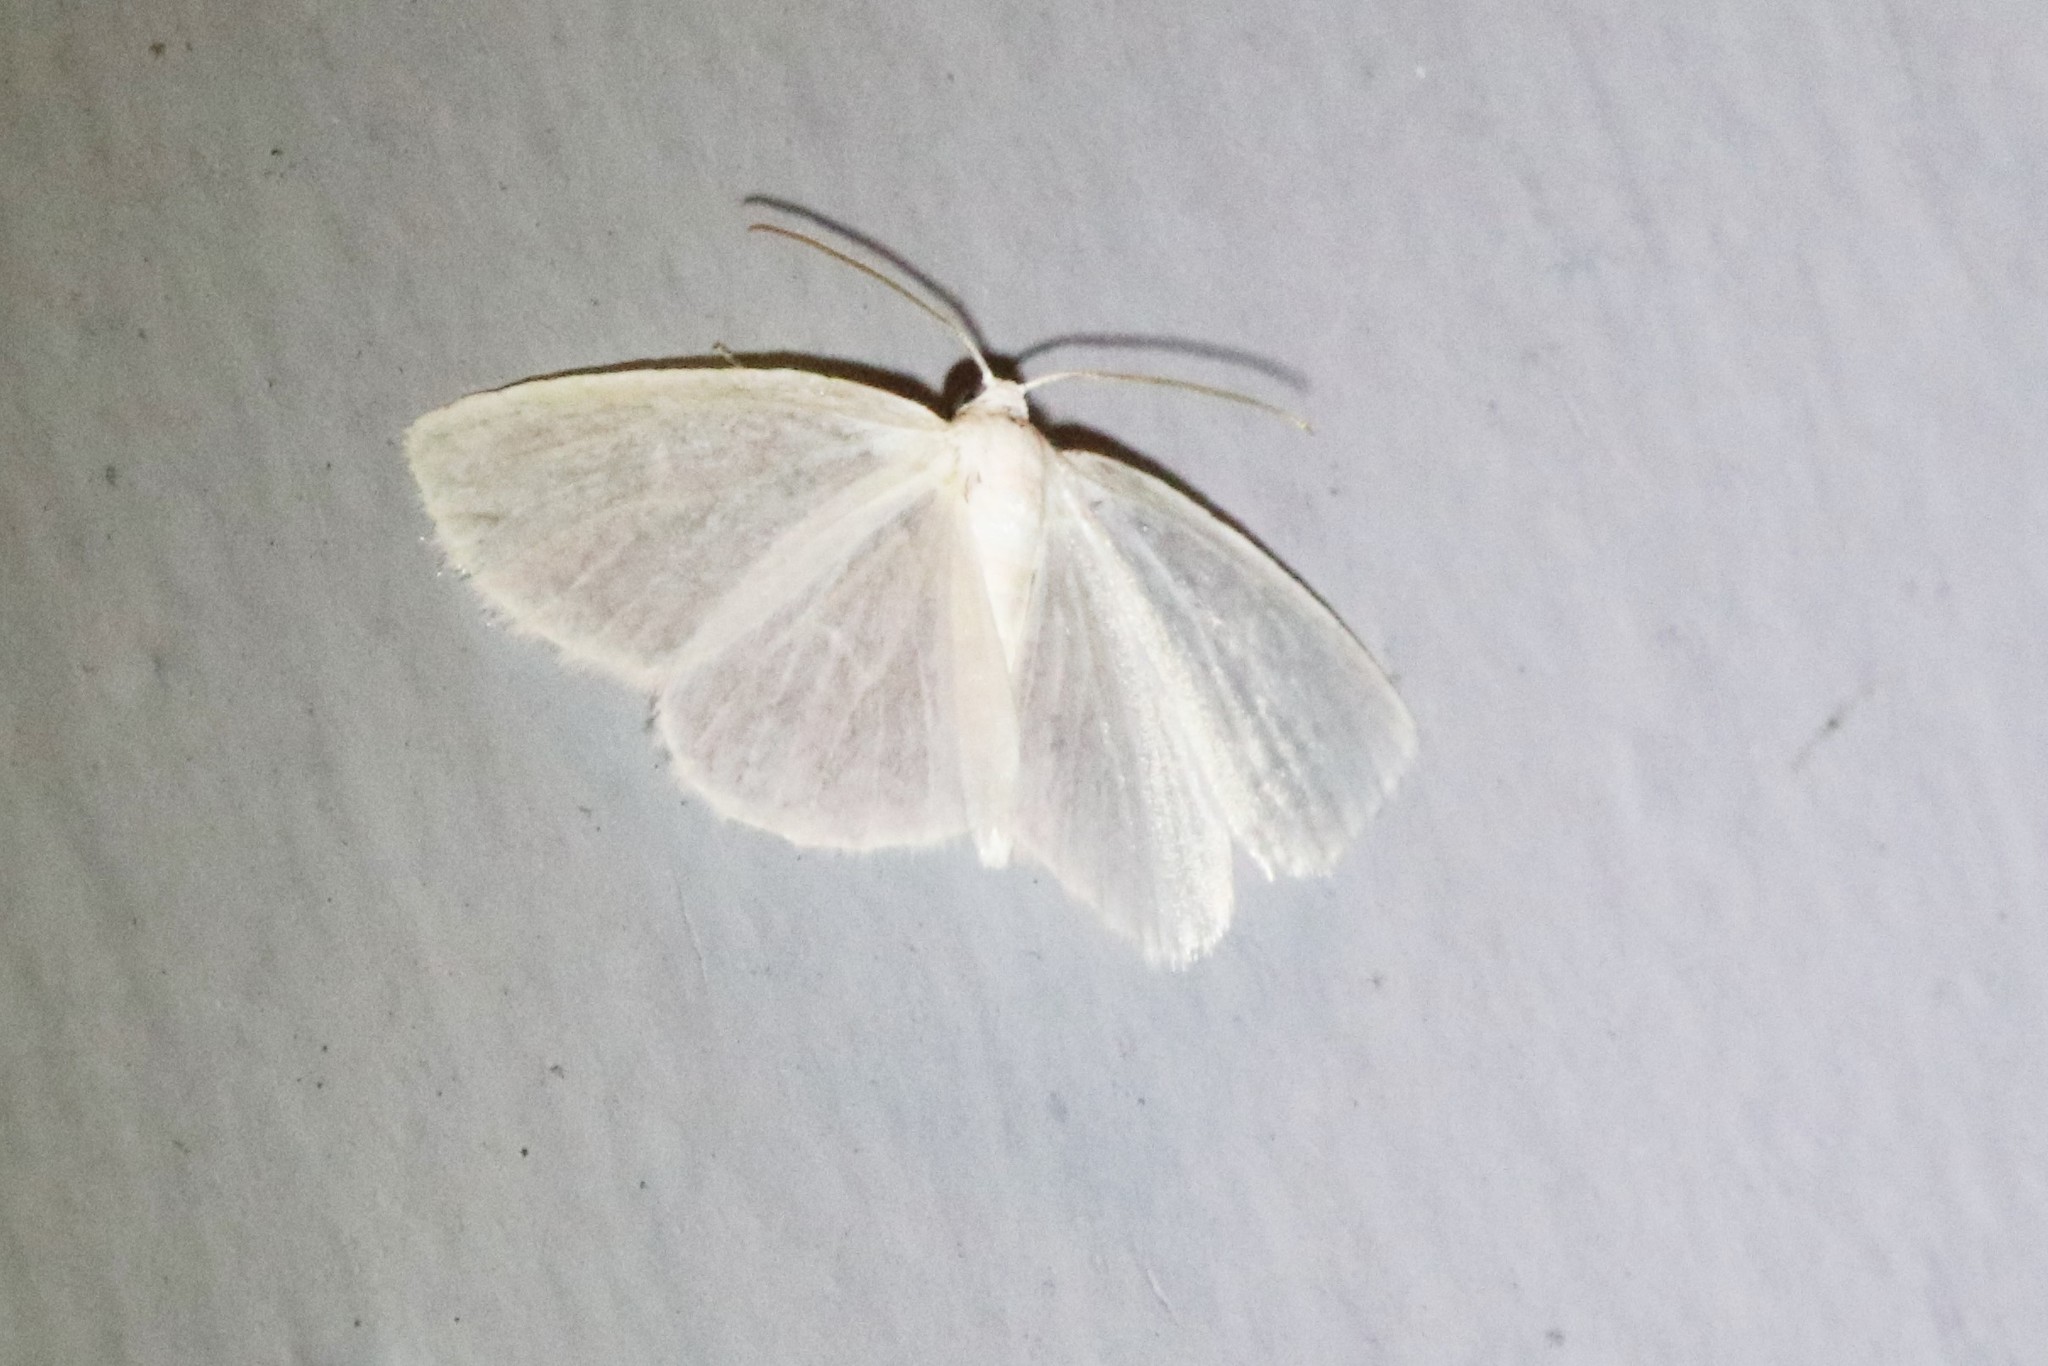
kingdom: Animalia
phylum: Arthropoda
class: Insecta
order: Lepidoptera
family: Geometridae
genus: Lomographa
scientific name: Lomographa vestaliata
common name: White spring moth
